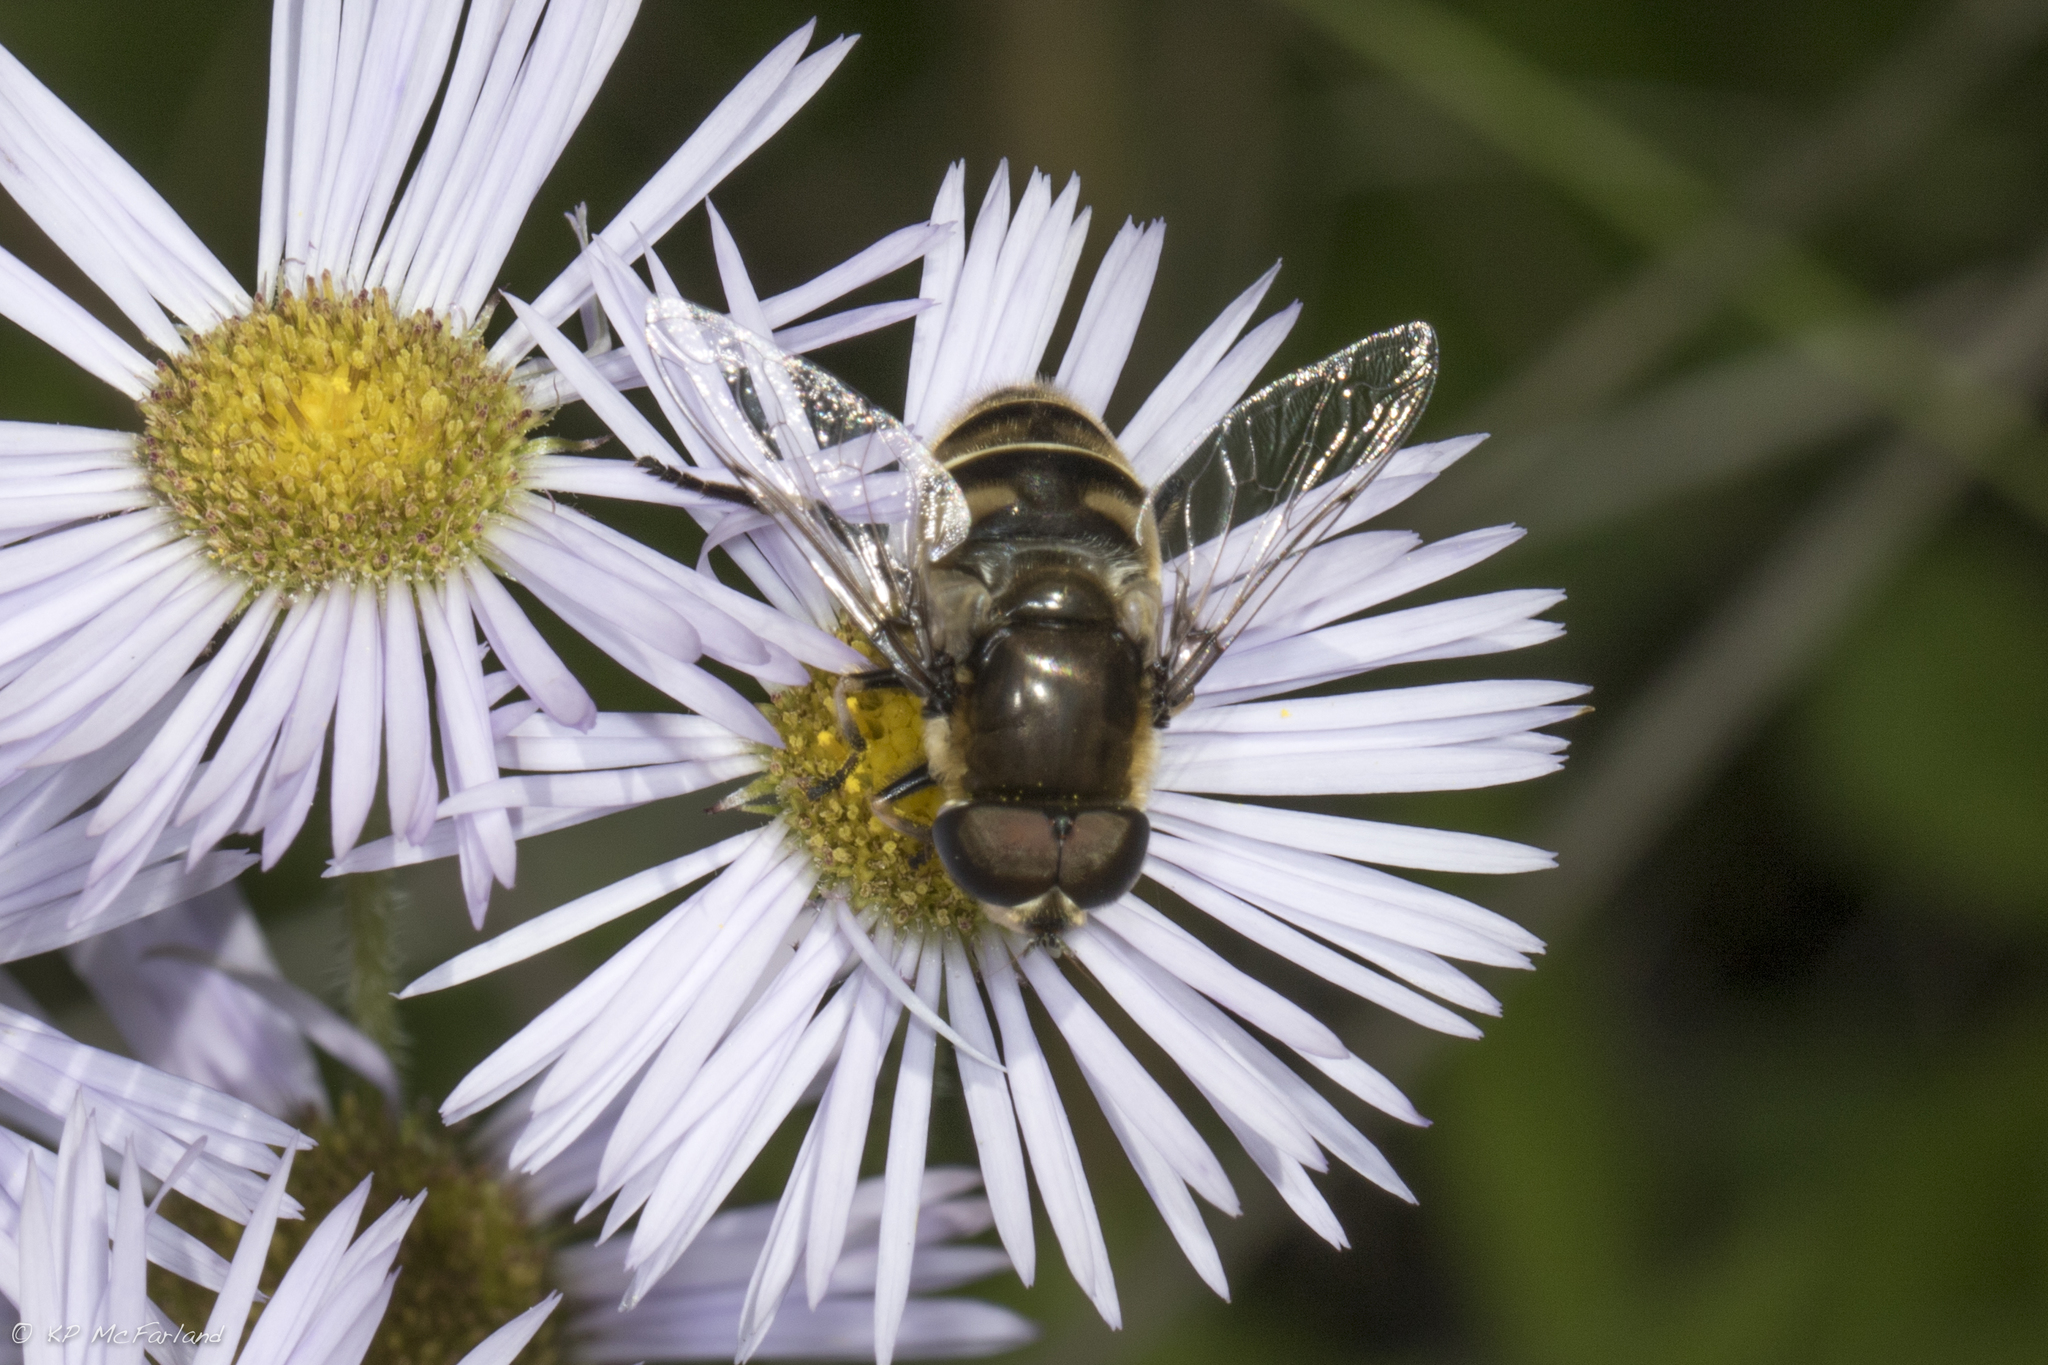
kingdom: Animalia
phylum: Arthropoda
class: Insecta
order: Diptera
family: Syrphidae
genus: Eristalis
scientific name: Eristalis dimidiata
